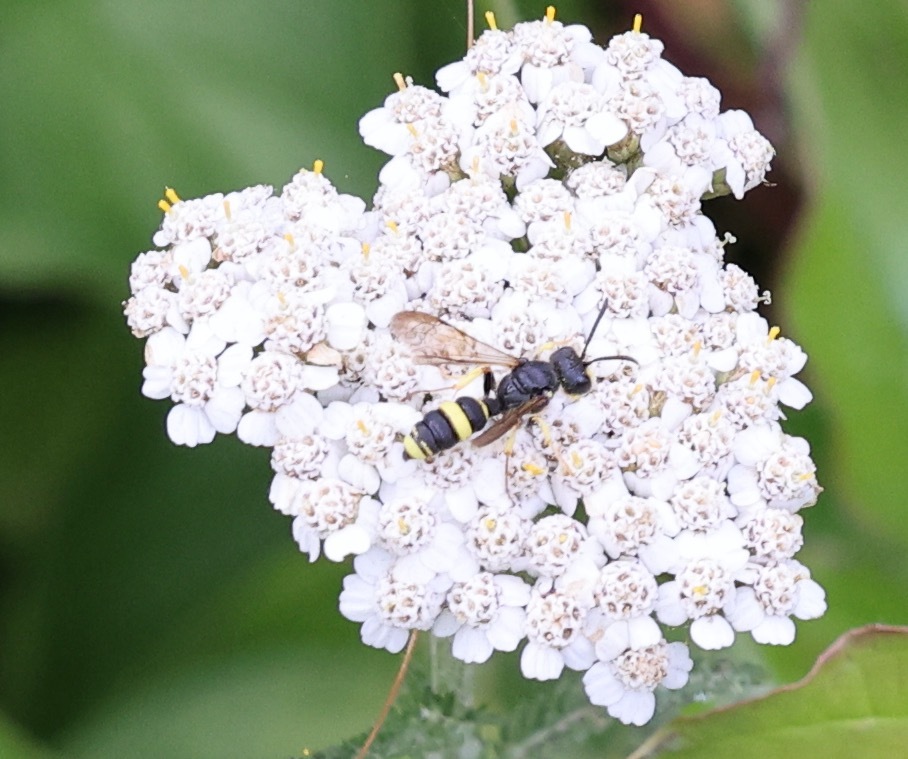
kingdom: Animalia
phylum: Arthropoda
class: Insecta
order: Hymenoptera
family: Crabronidae
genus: Cerceris
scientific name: Cerceris rybyensis
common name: Ornate tailed digger wasp
